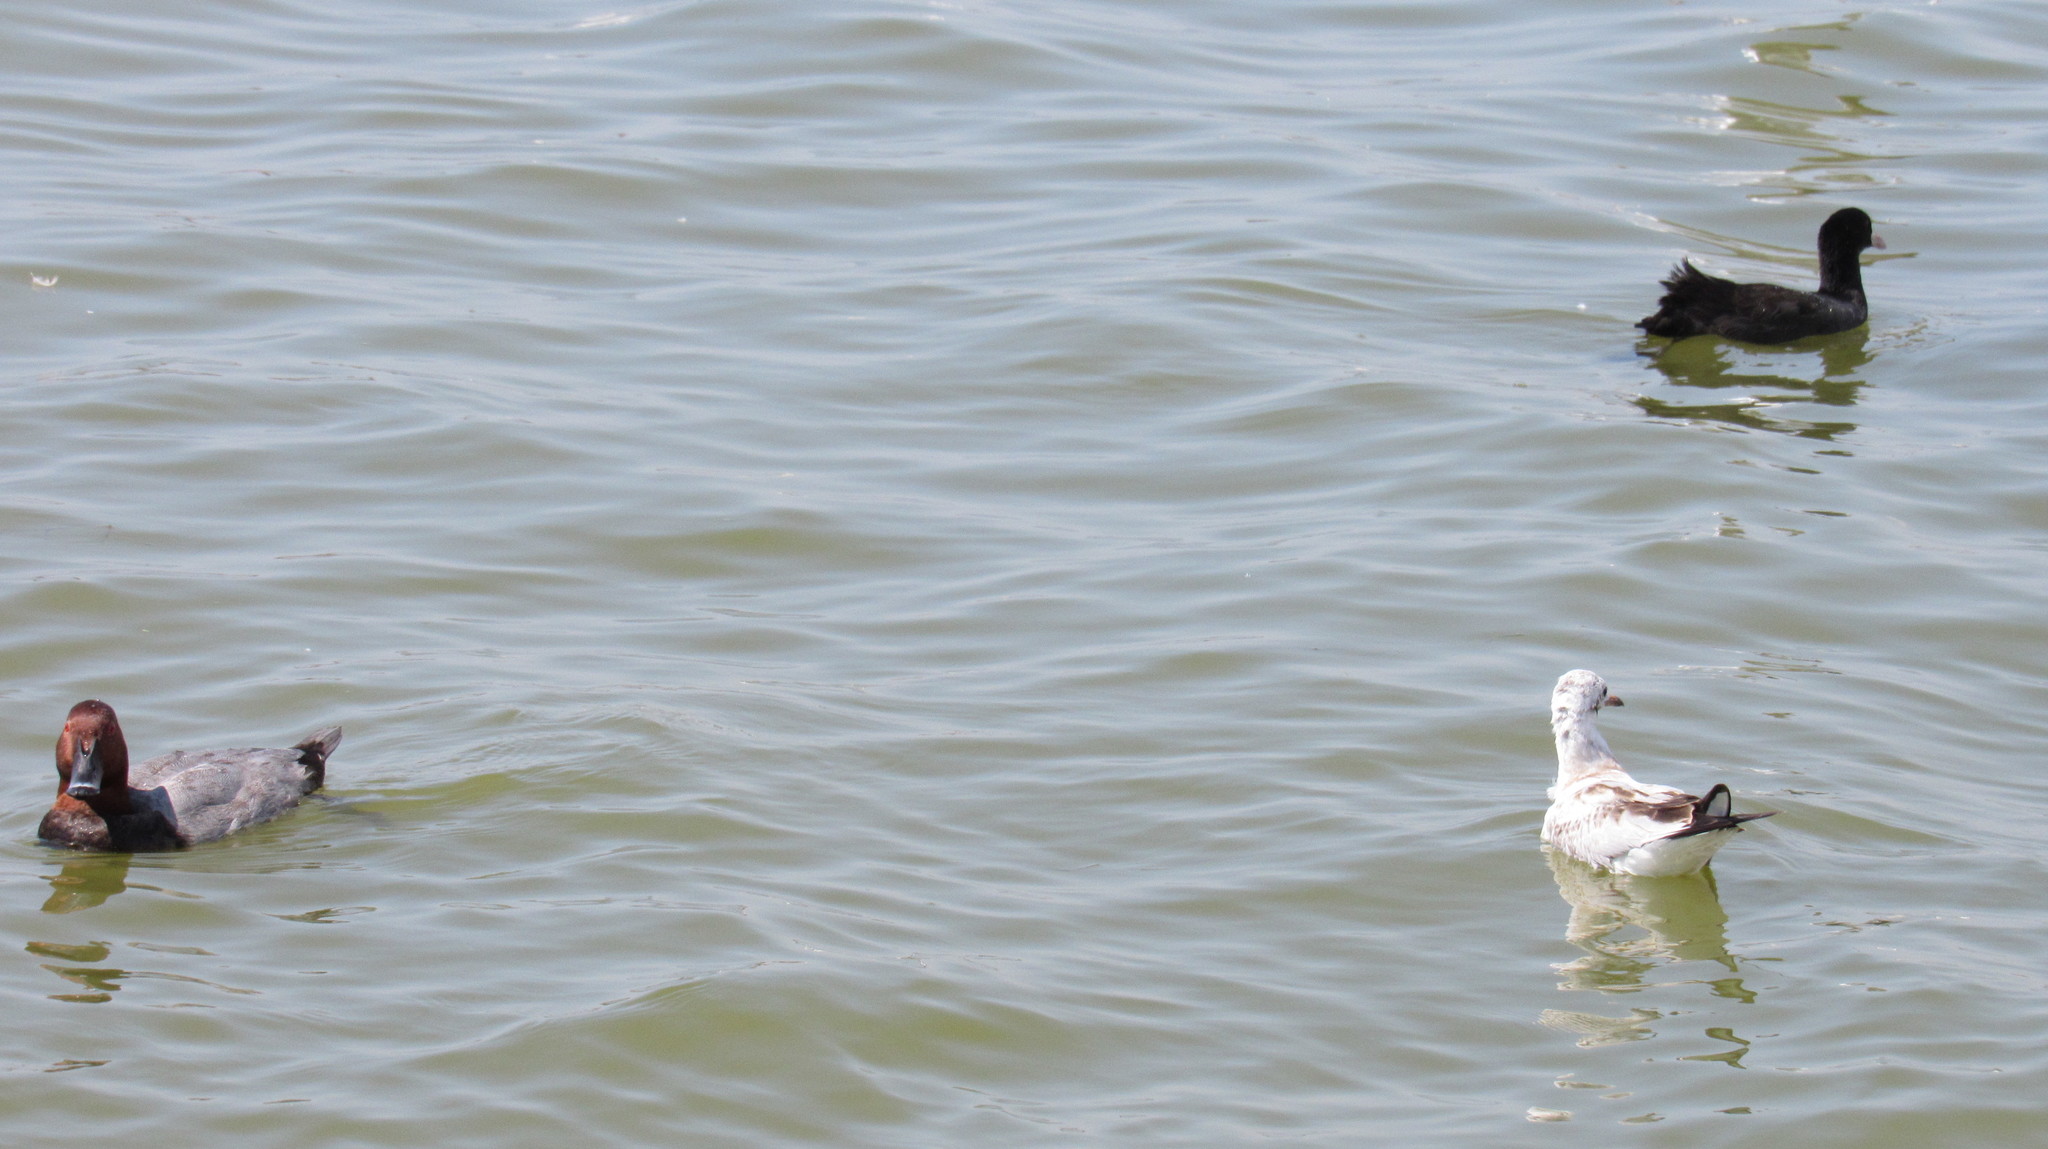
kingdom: Animalia
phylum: Chordata
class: Aves
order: Charadriiformes
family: Laridae
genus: Chroicocephalus
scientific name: Chroicocephalus ridibundus
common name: Black-headed gull
